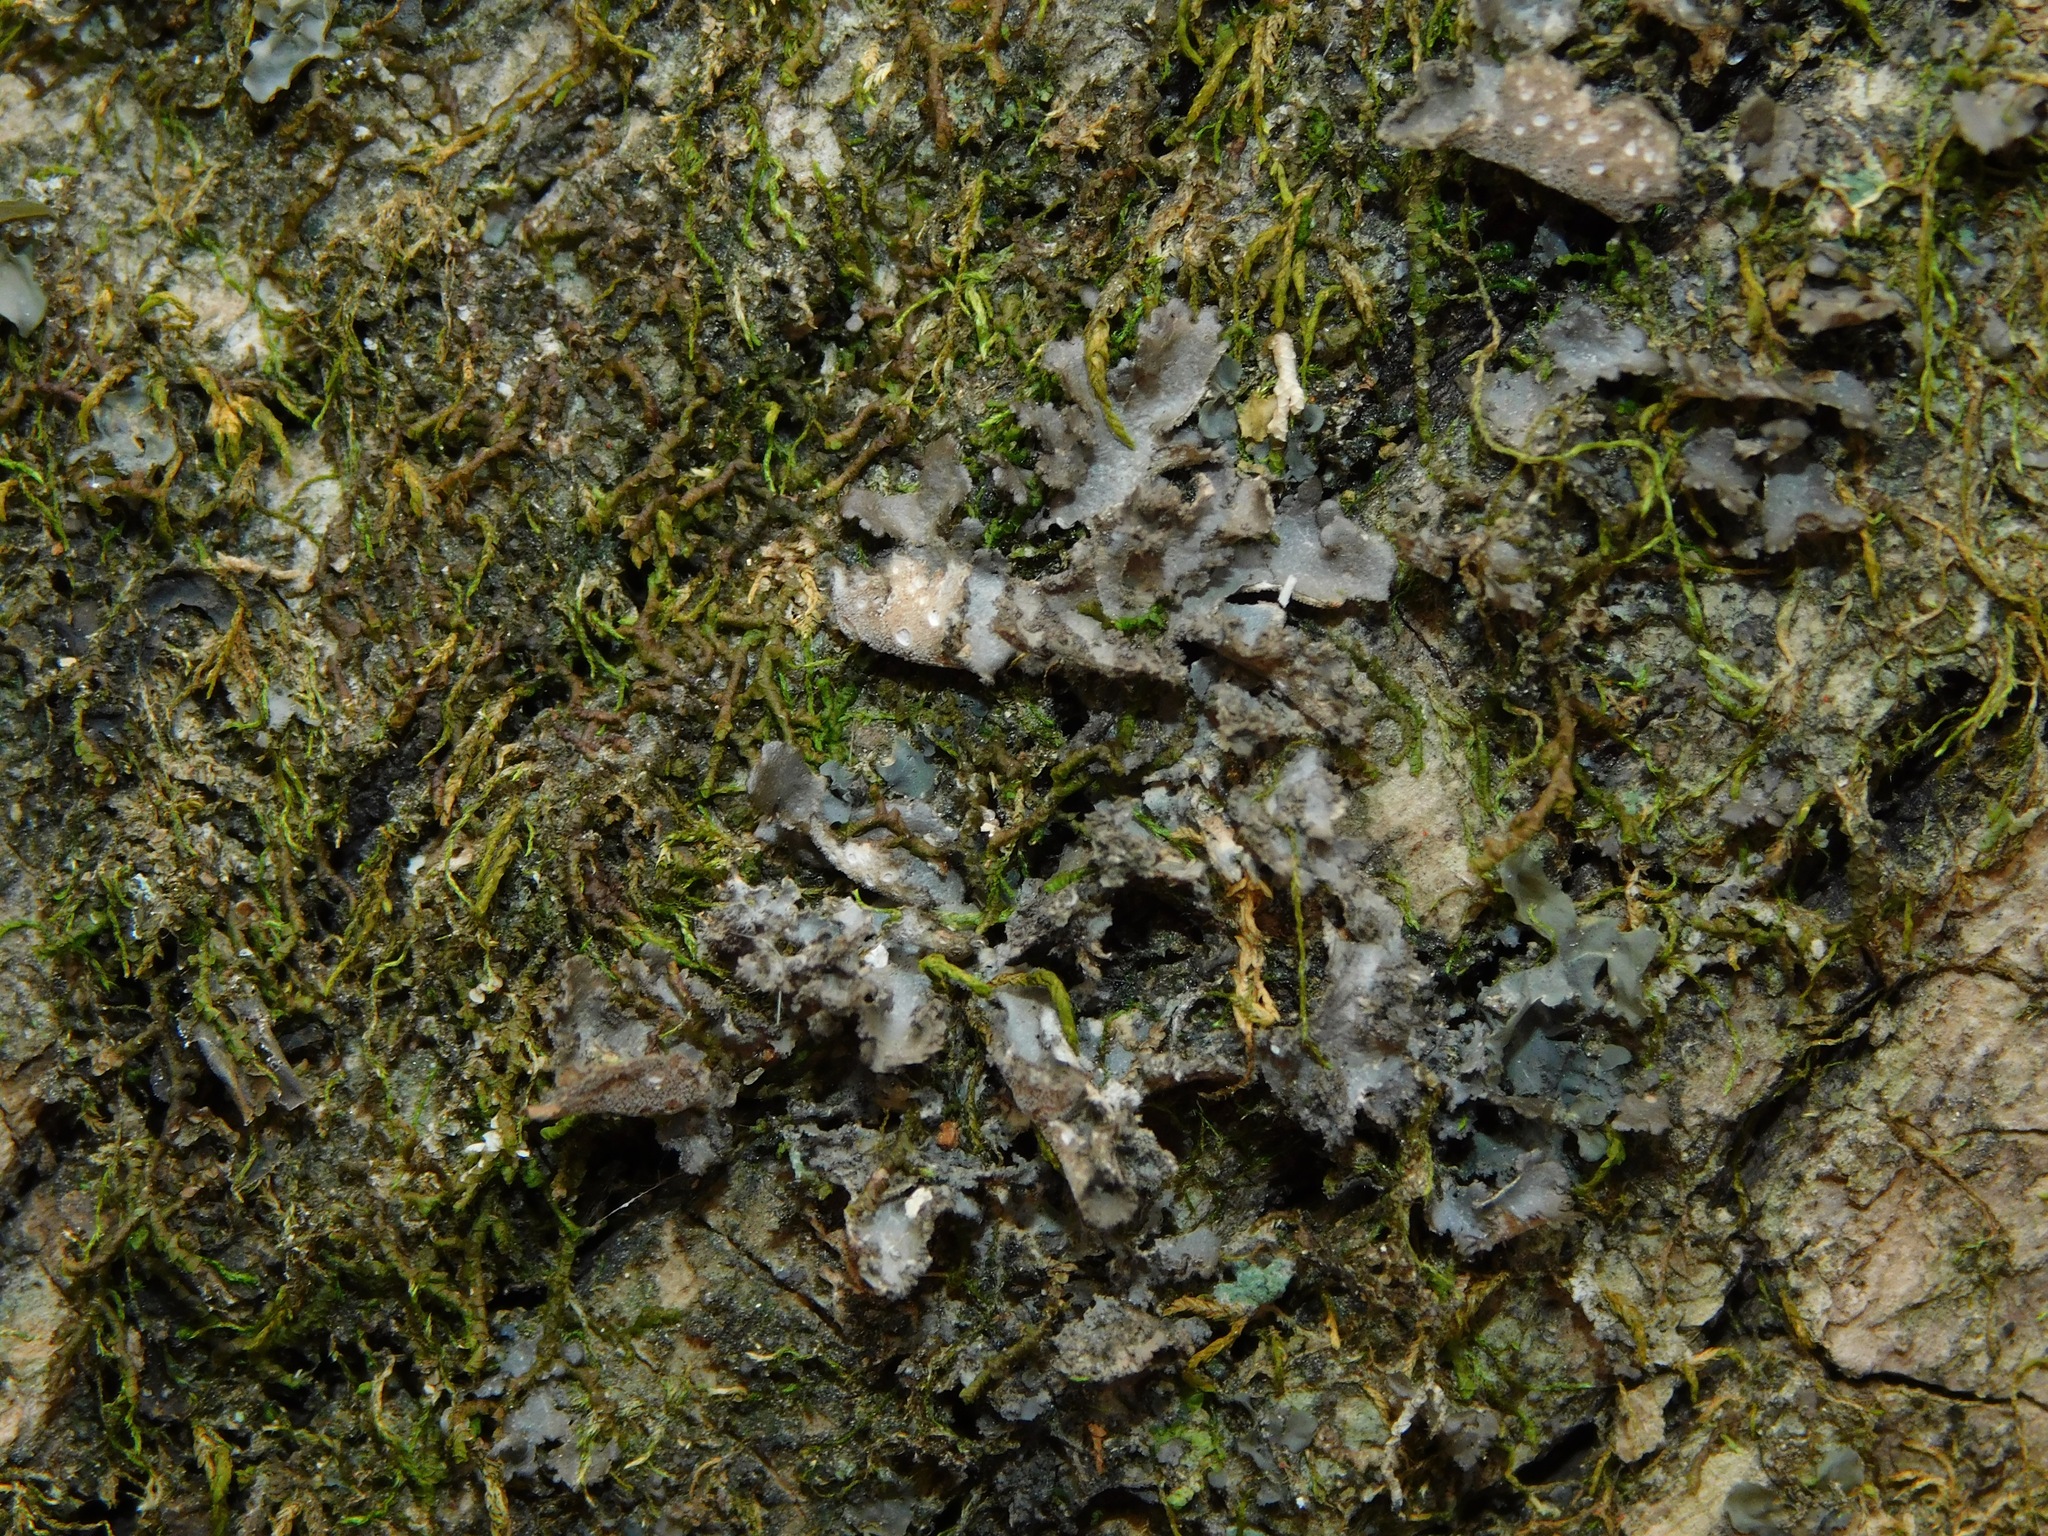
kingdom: Fungi
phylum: Ascomycota
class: Lecanoromycetes
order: Peltigerales
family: Lobariaceae
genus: Sticta
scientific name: Sticta beauvoisii
